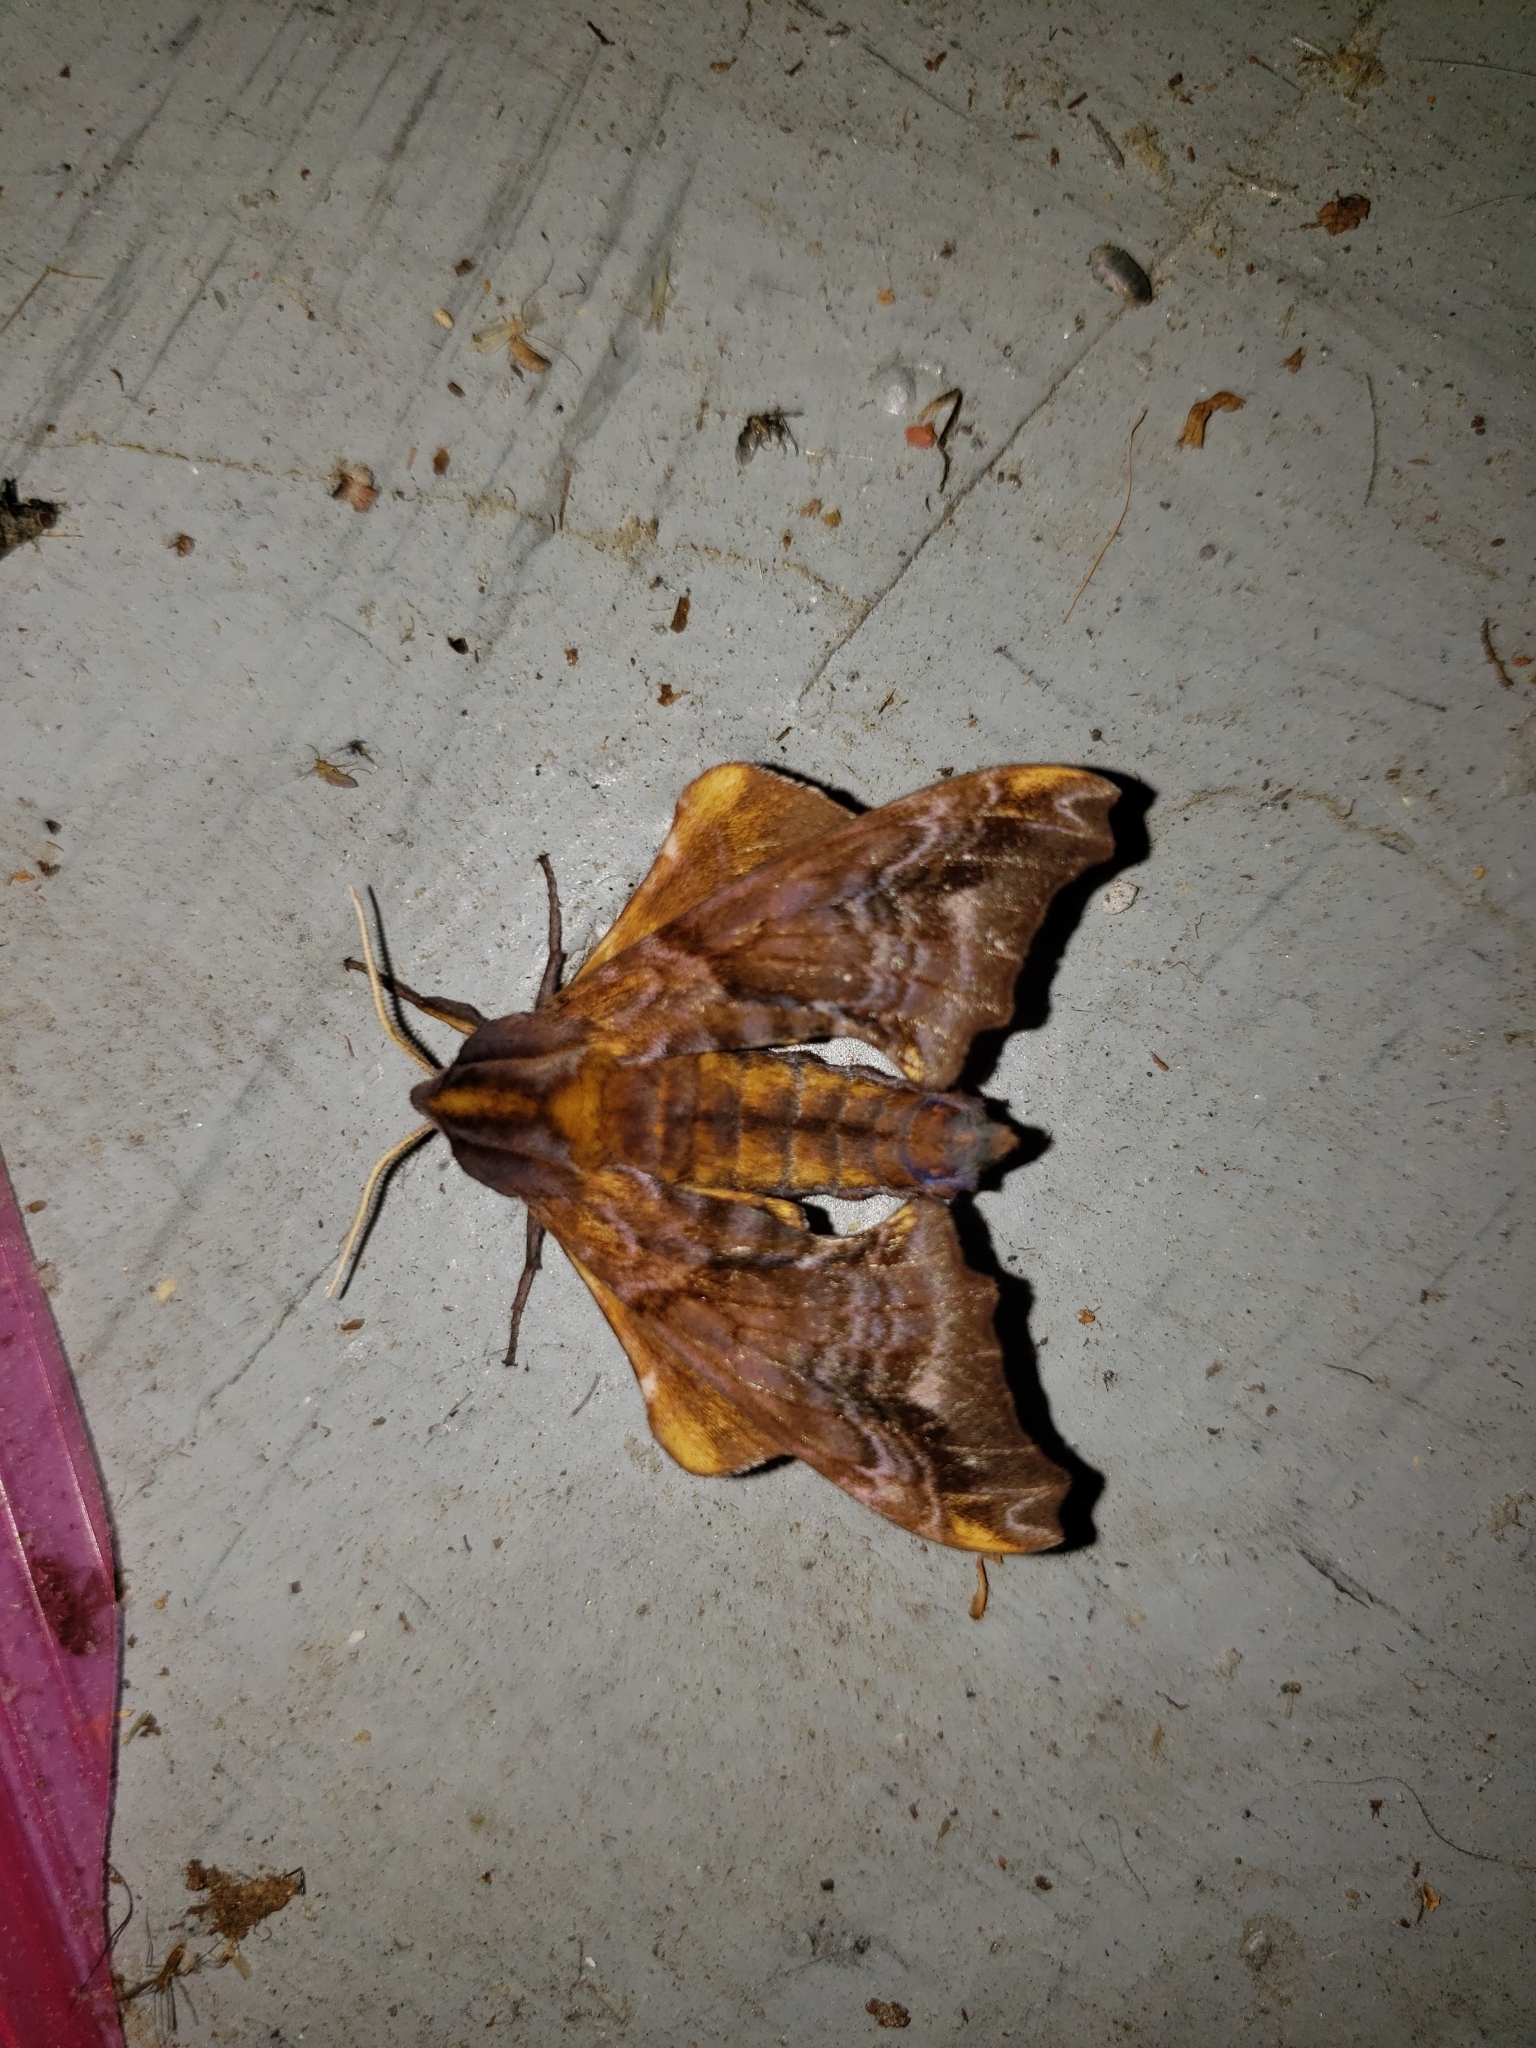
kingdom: Animalia
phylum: Arthropoda
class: Insecta
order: Lepidoptera
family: Sphingidae
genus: Paonias
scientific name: Paonias myops
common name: Small-eyed sphinx
